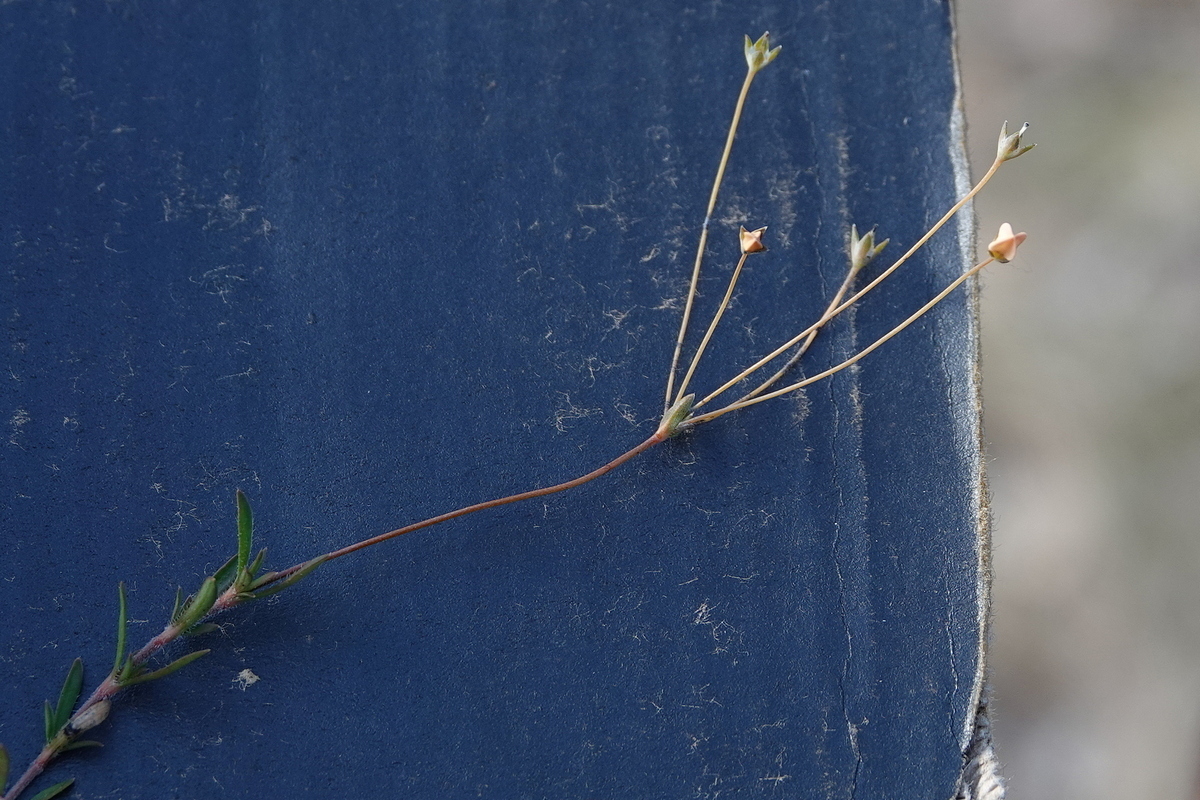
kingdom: Plantae
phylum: Tracheophyta
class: Magnoliopsida
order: Gentianales
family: Loganiaceae
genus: Mitrasacme
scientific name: Mitrasacme polymorpha
